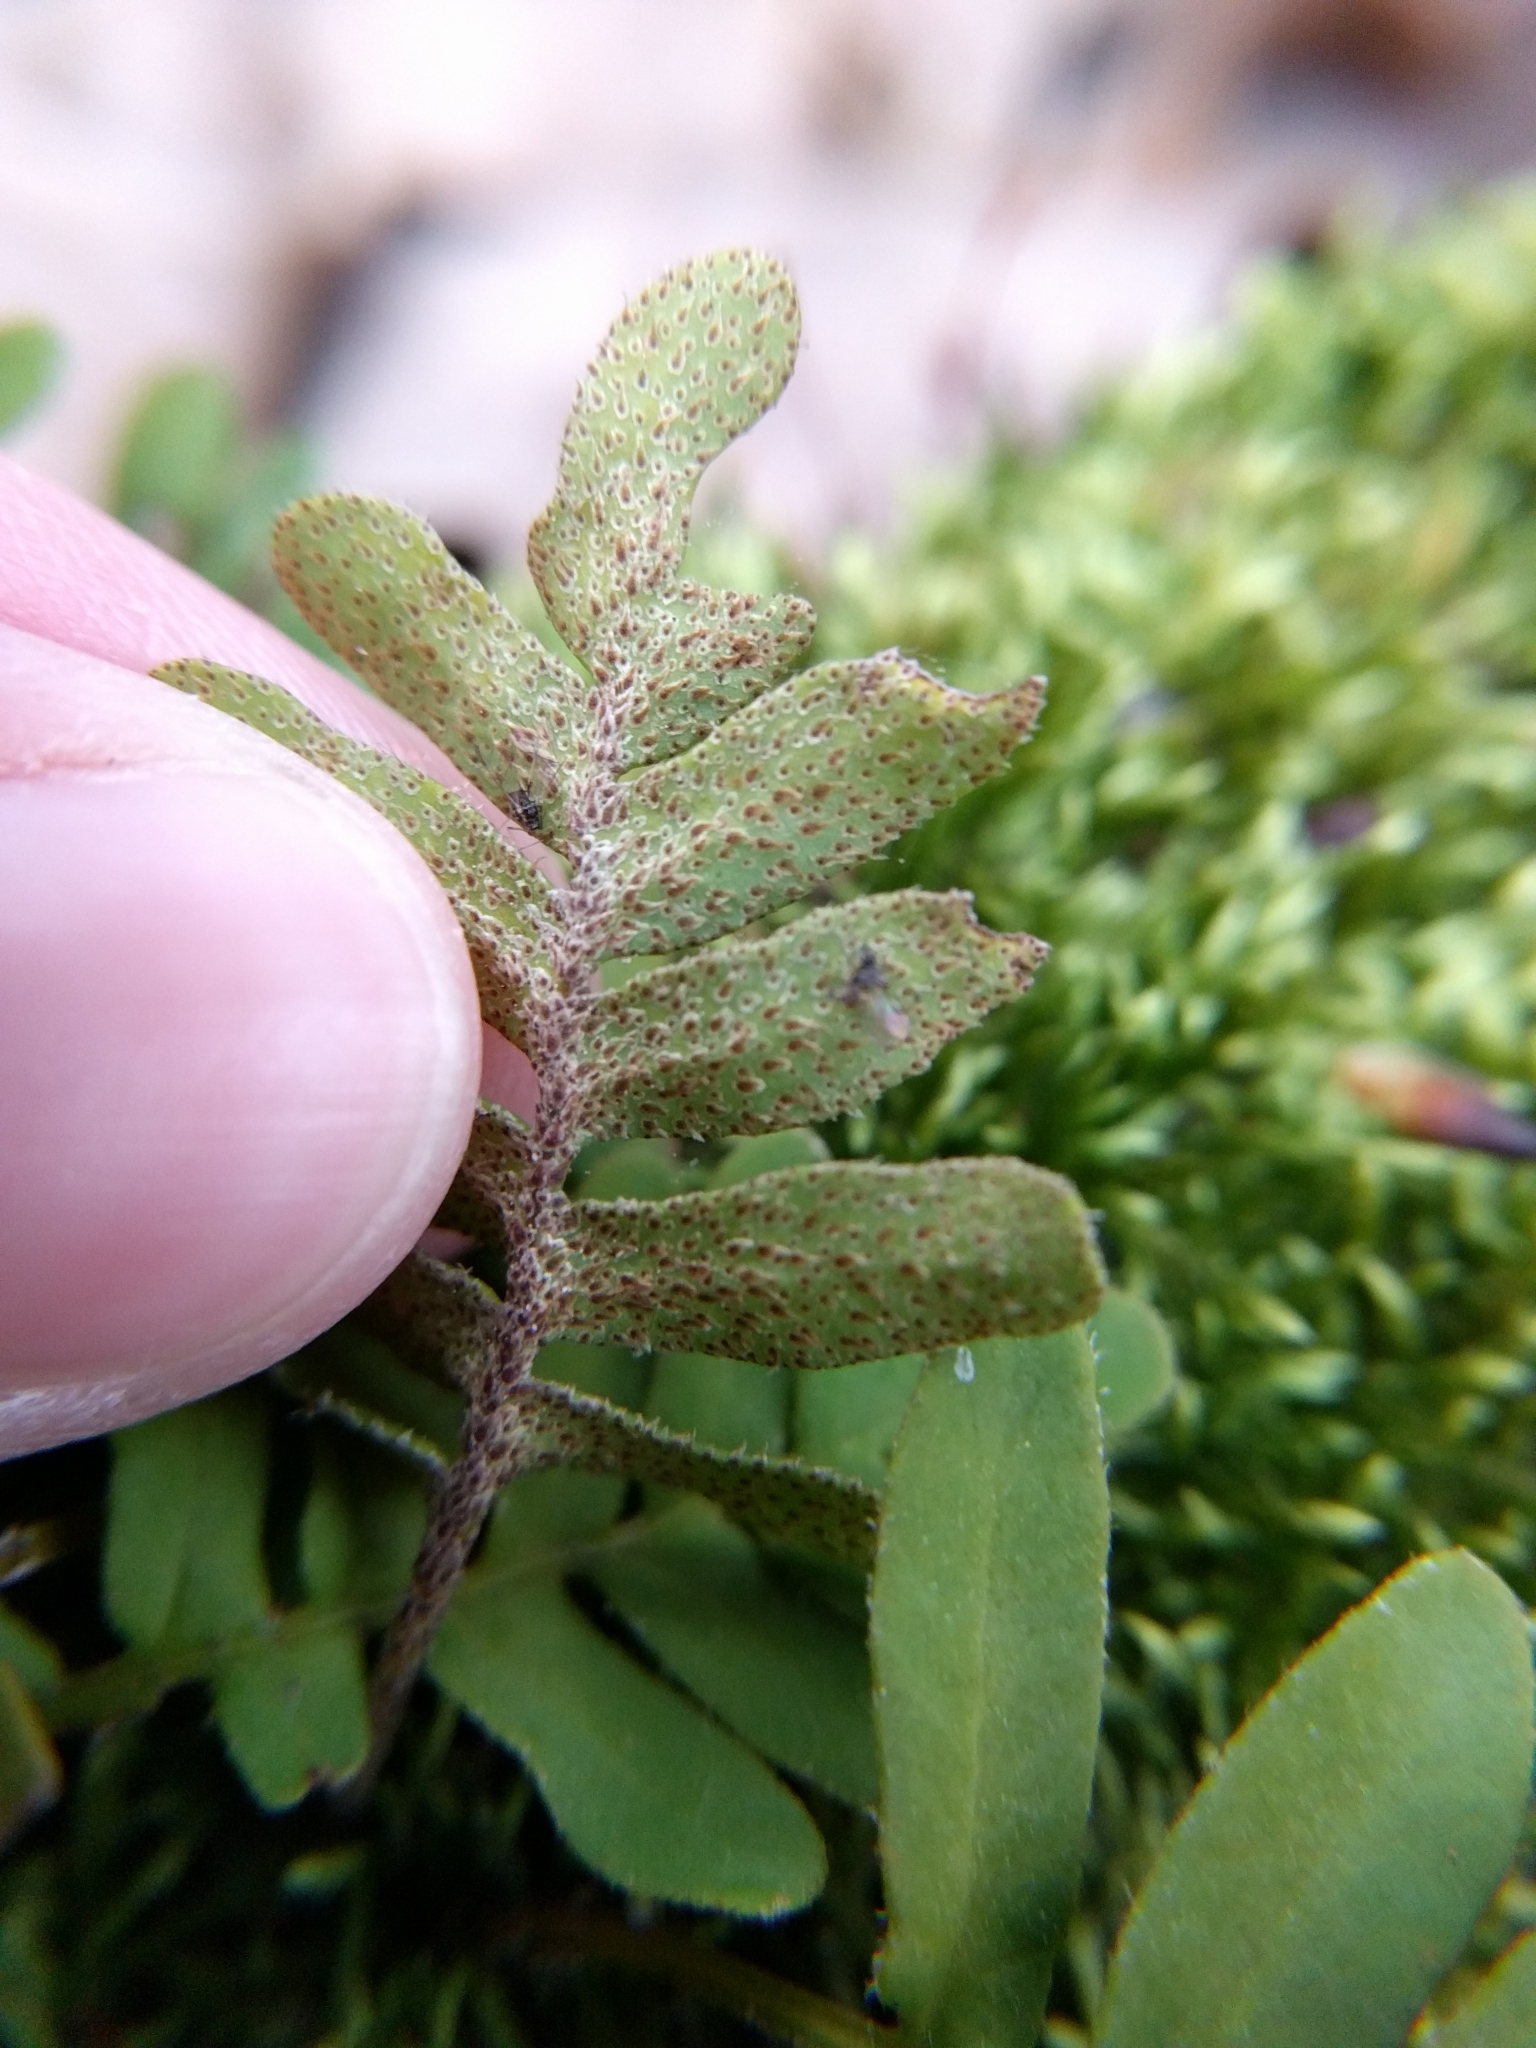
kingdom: Plantae
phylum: Tracheophyta
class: Polypodiopsida
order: Polypodiales
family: Polypodiaceae
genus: Pleopeltis
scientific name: Pleopeltis michauxiana
